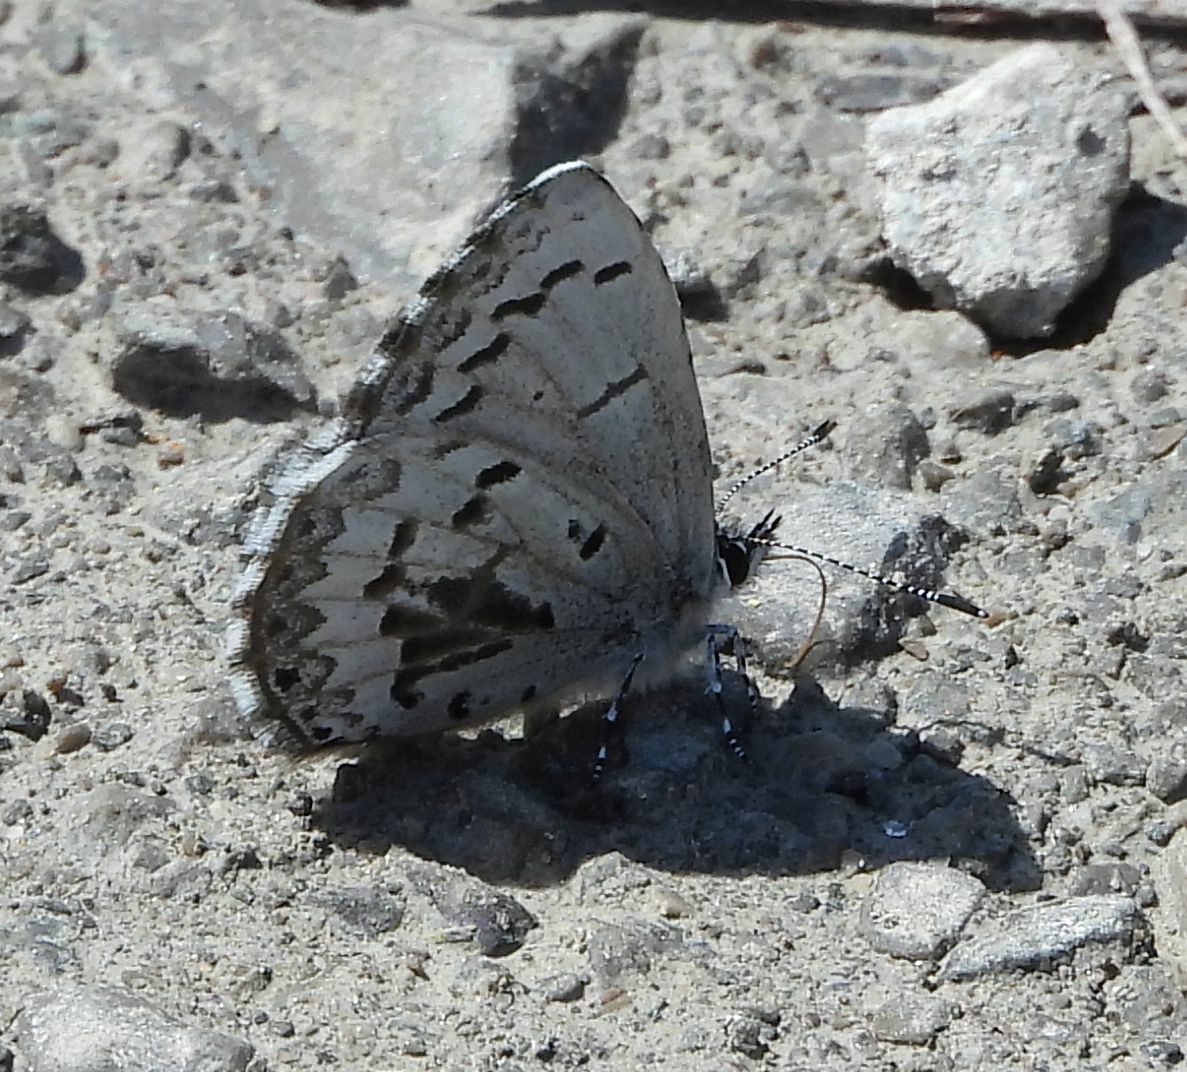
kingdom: Animalia
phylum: Arthropoda
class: Insecta
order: Lepidoptera
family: Lycaenidae
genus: Celastrina
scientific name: Celastrina lucia
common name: Lucia azure
